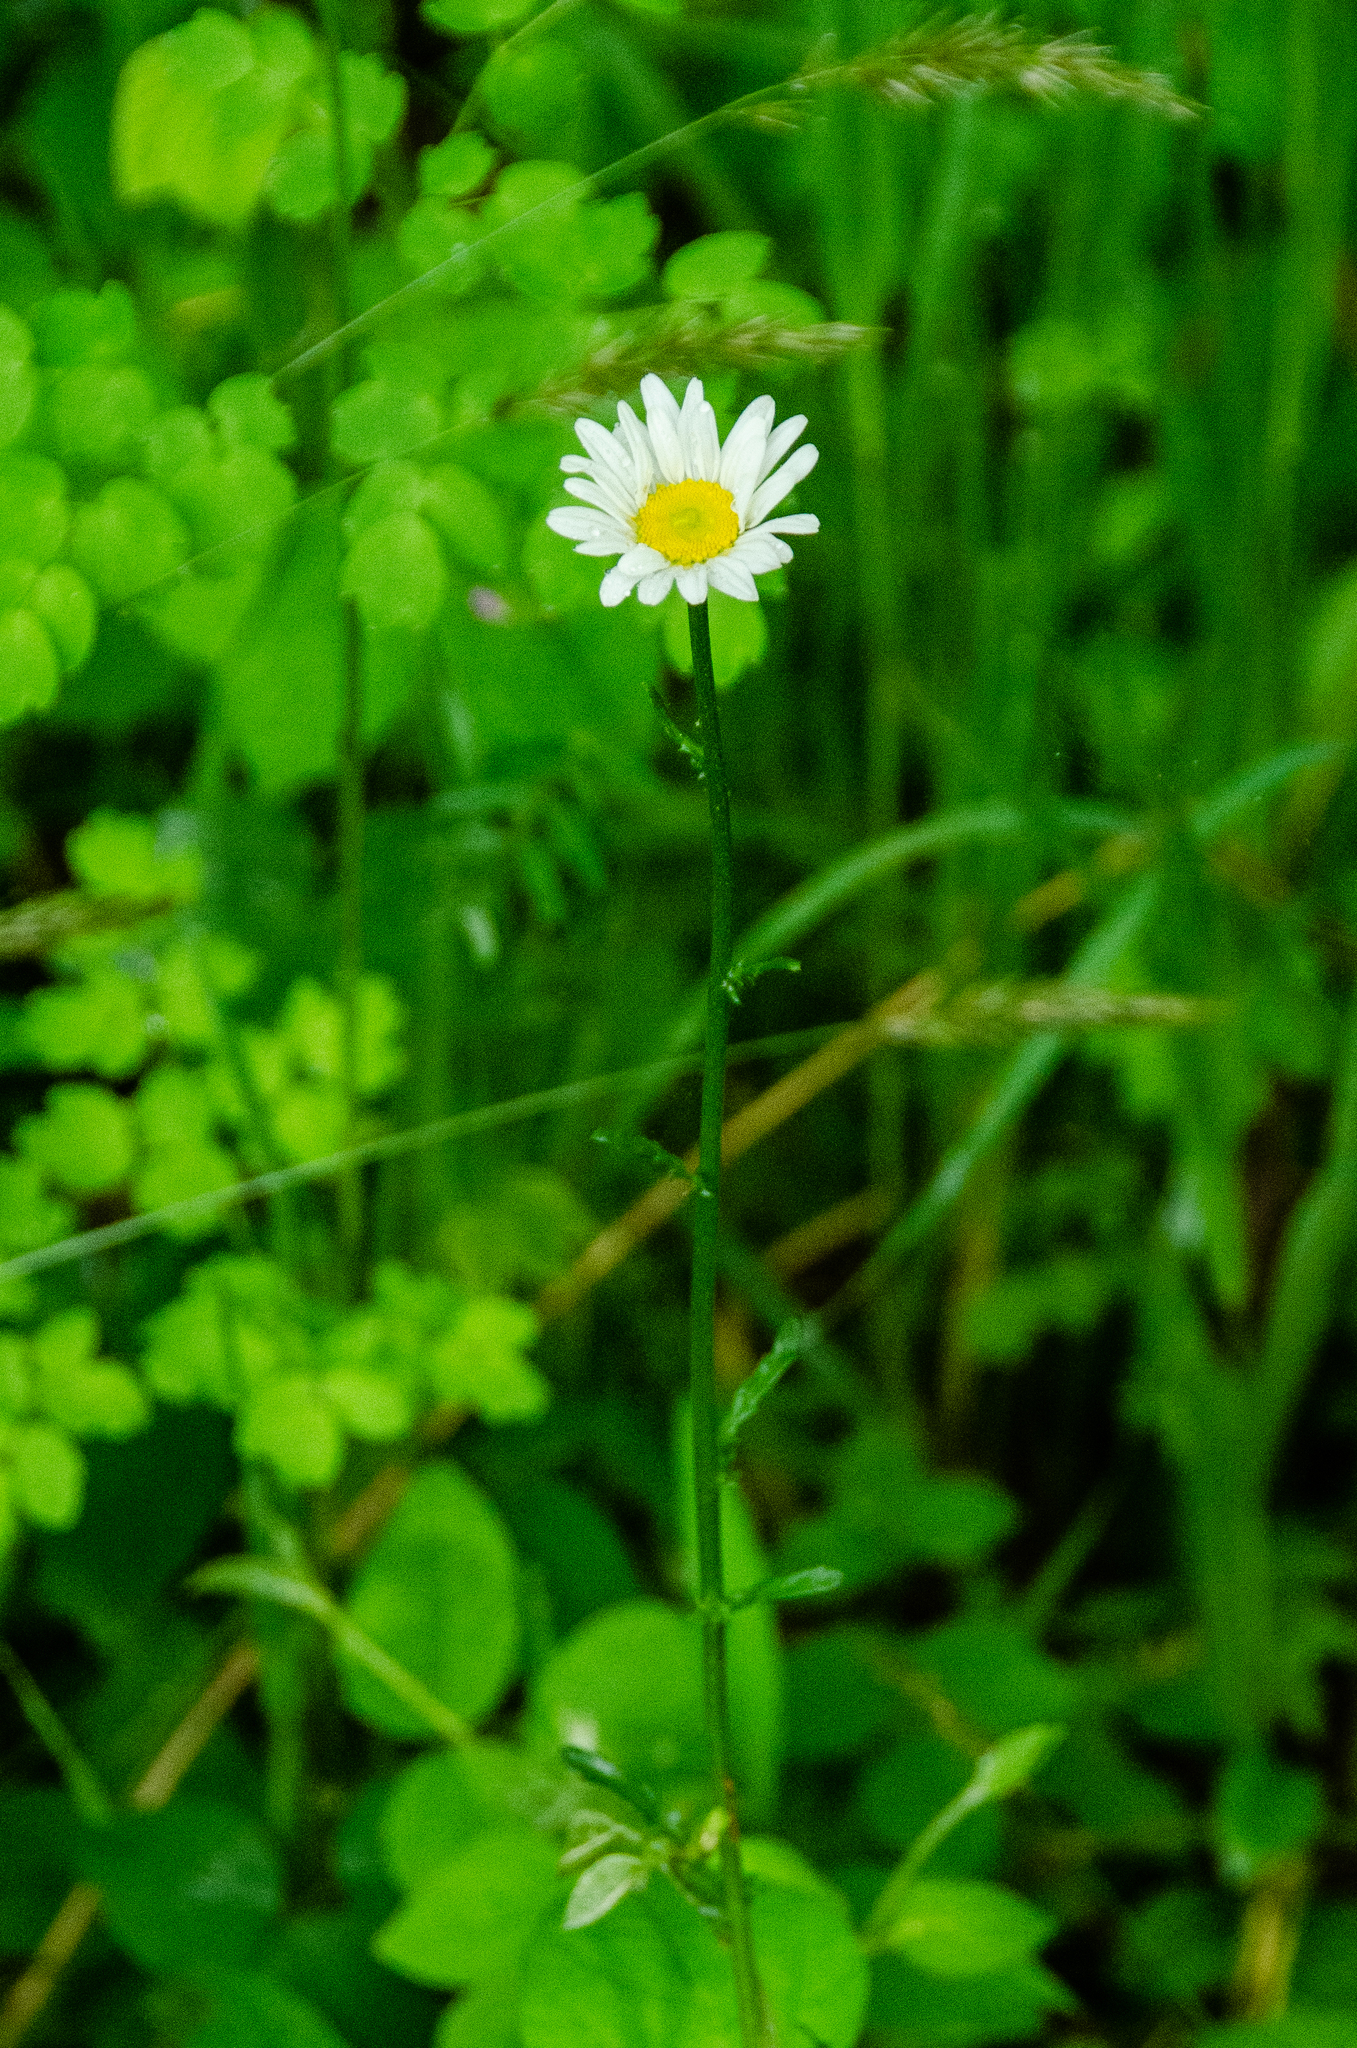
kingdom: Plantae
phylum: Tracheophyta
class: Magnoliopsida
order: Asterales
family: Asteraceae
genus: Leucanthemum
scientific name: Leucanthemum vulgare
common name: Oxeye daisy
